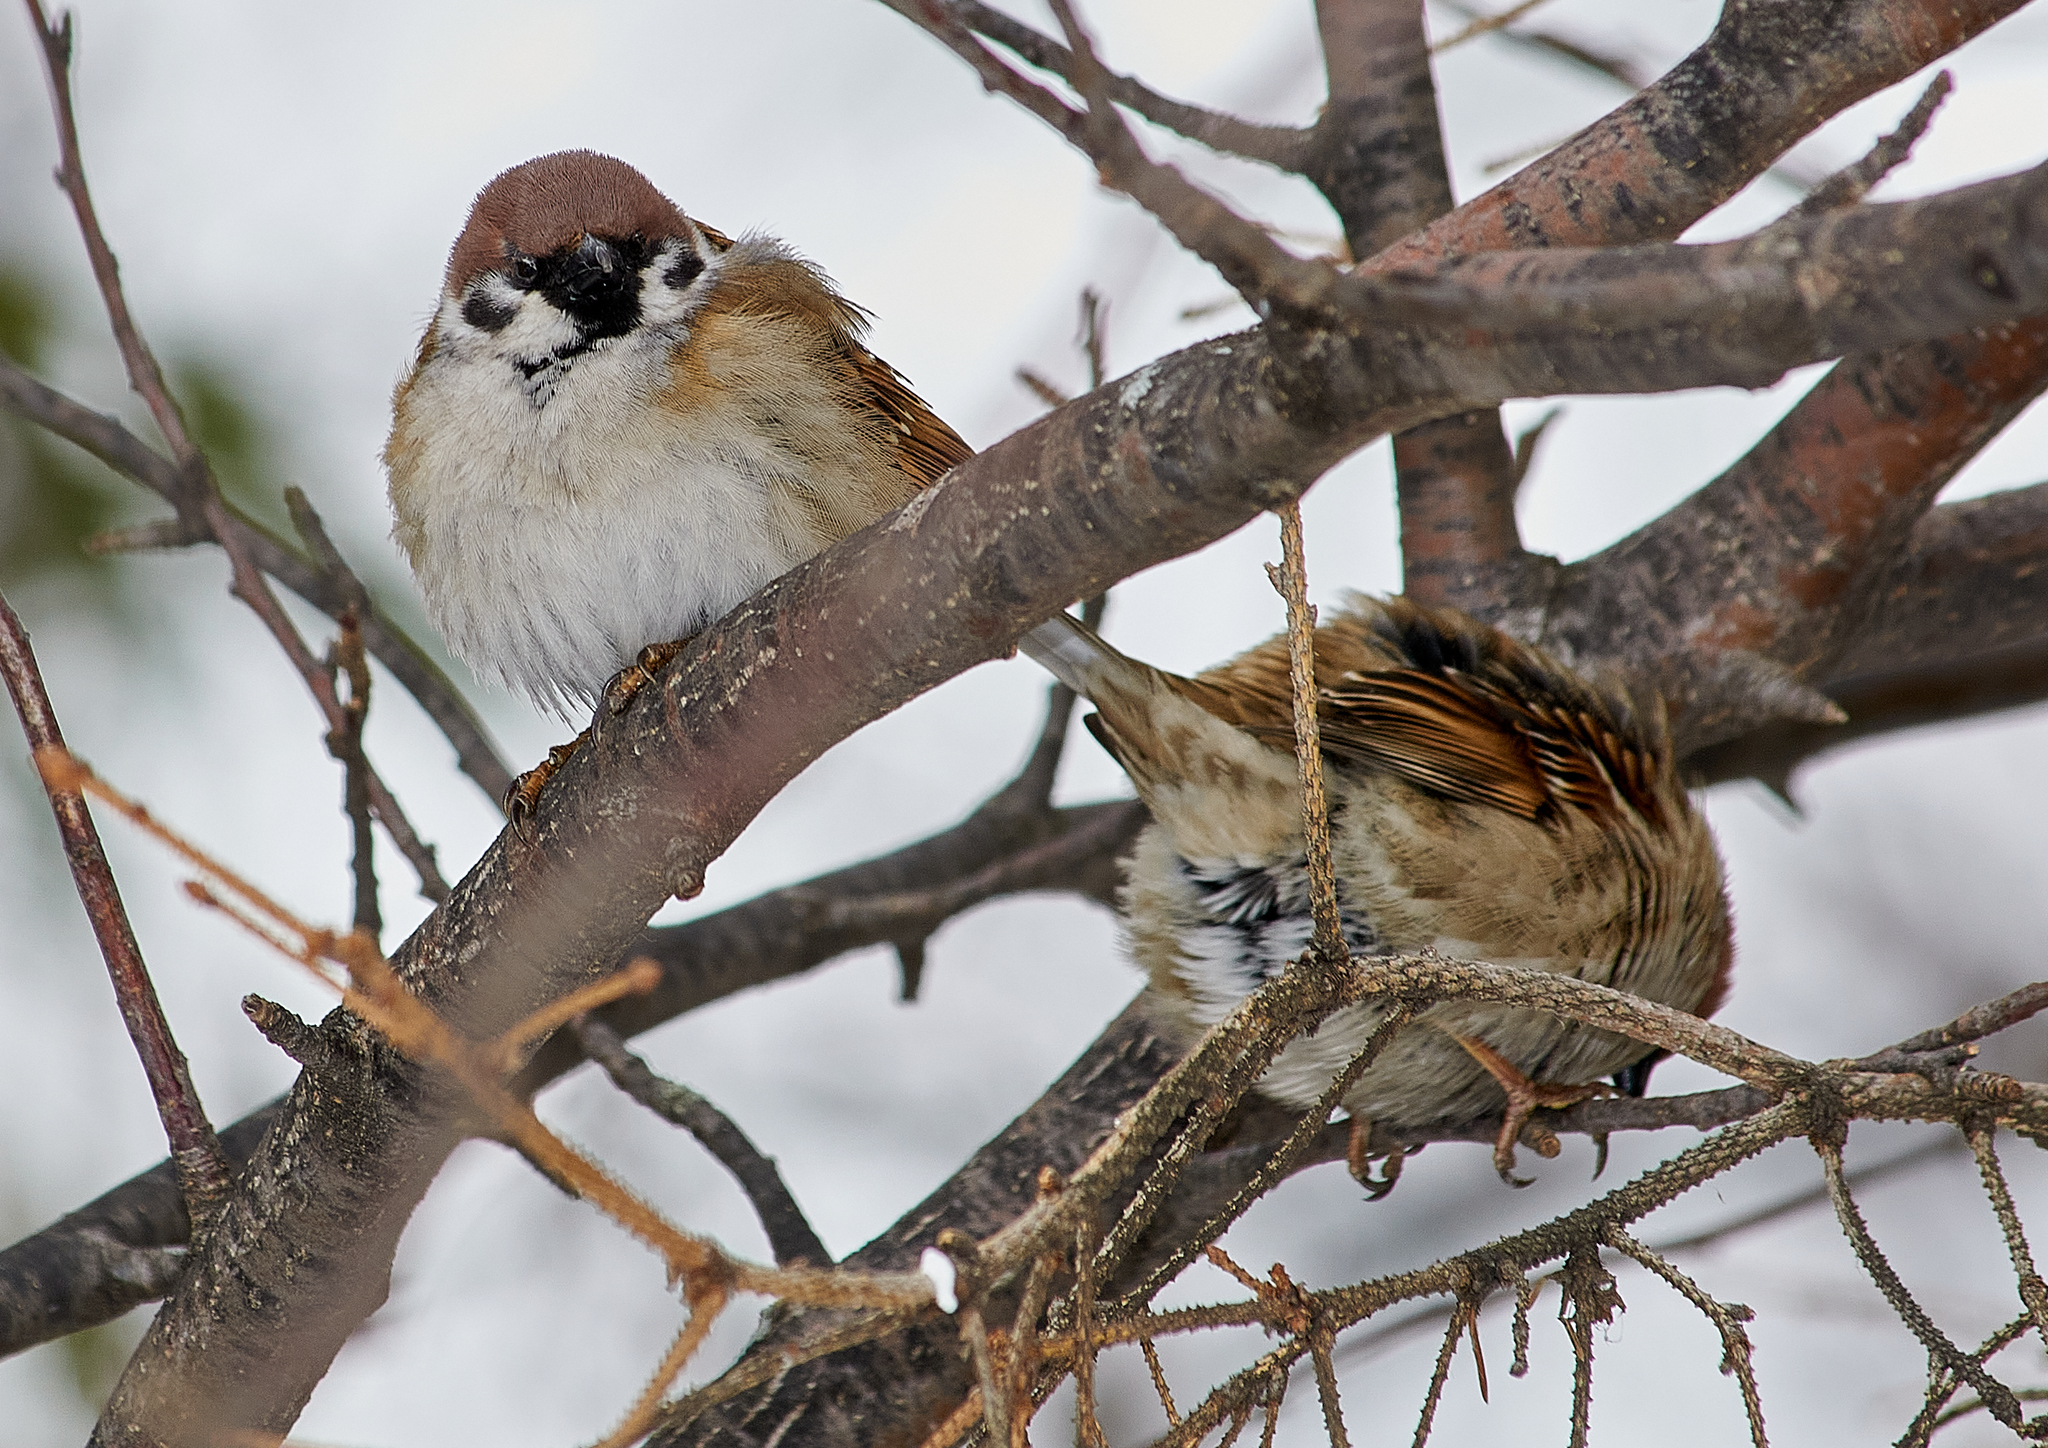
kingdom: Animalia
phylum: Chordata
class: Aves
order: Passeriformes
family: Passeridae
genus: Passer
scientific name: Passer montanus
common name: Eurasian tree sparrow
